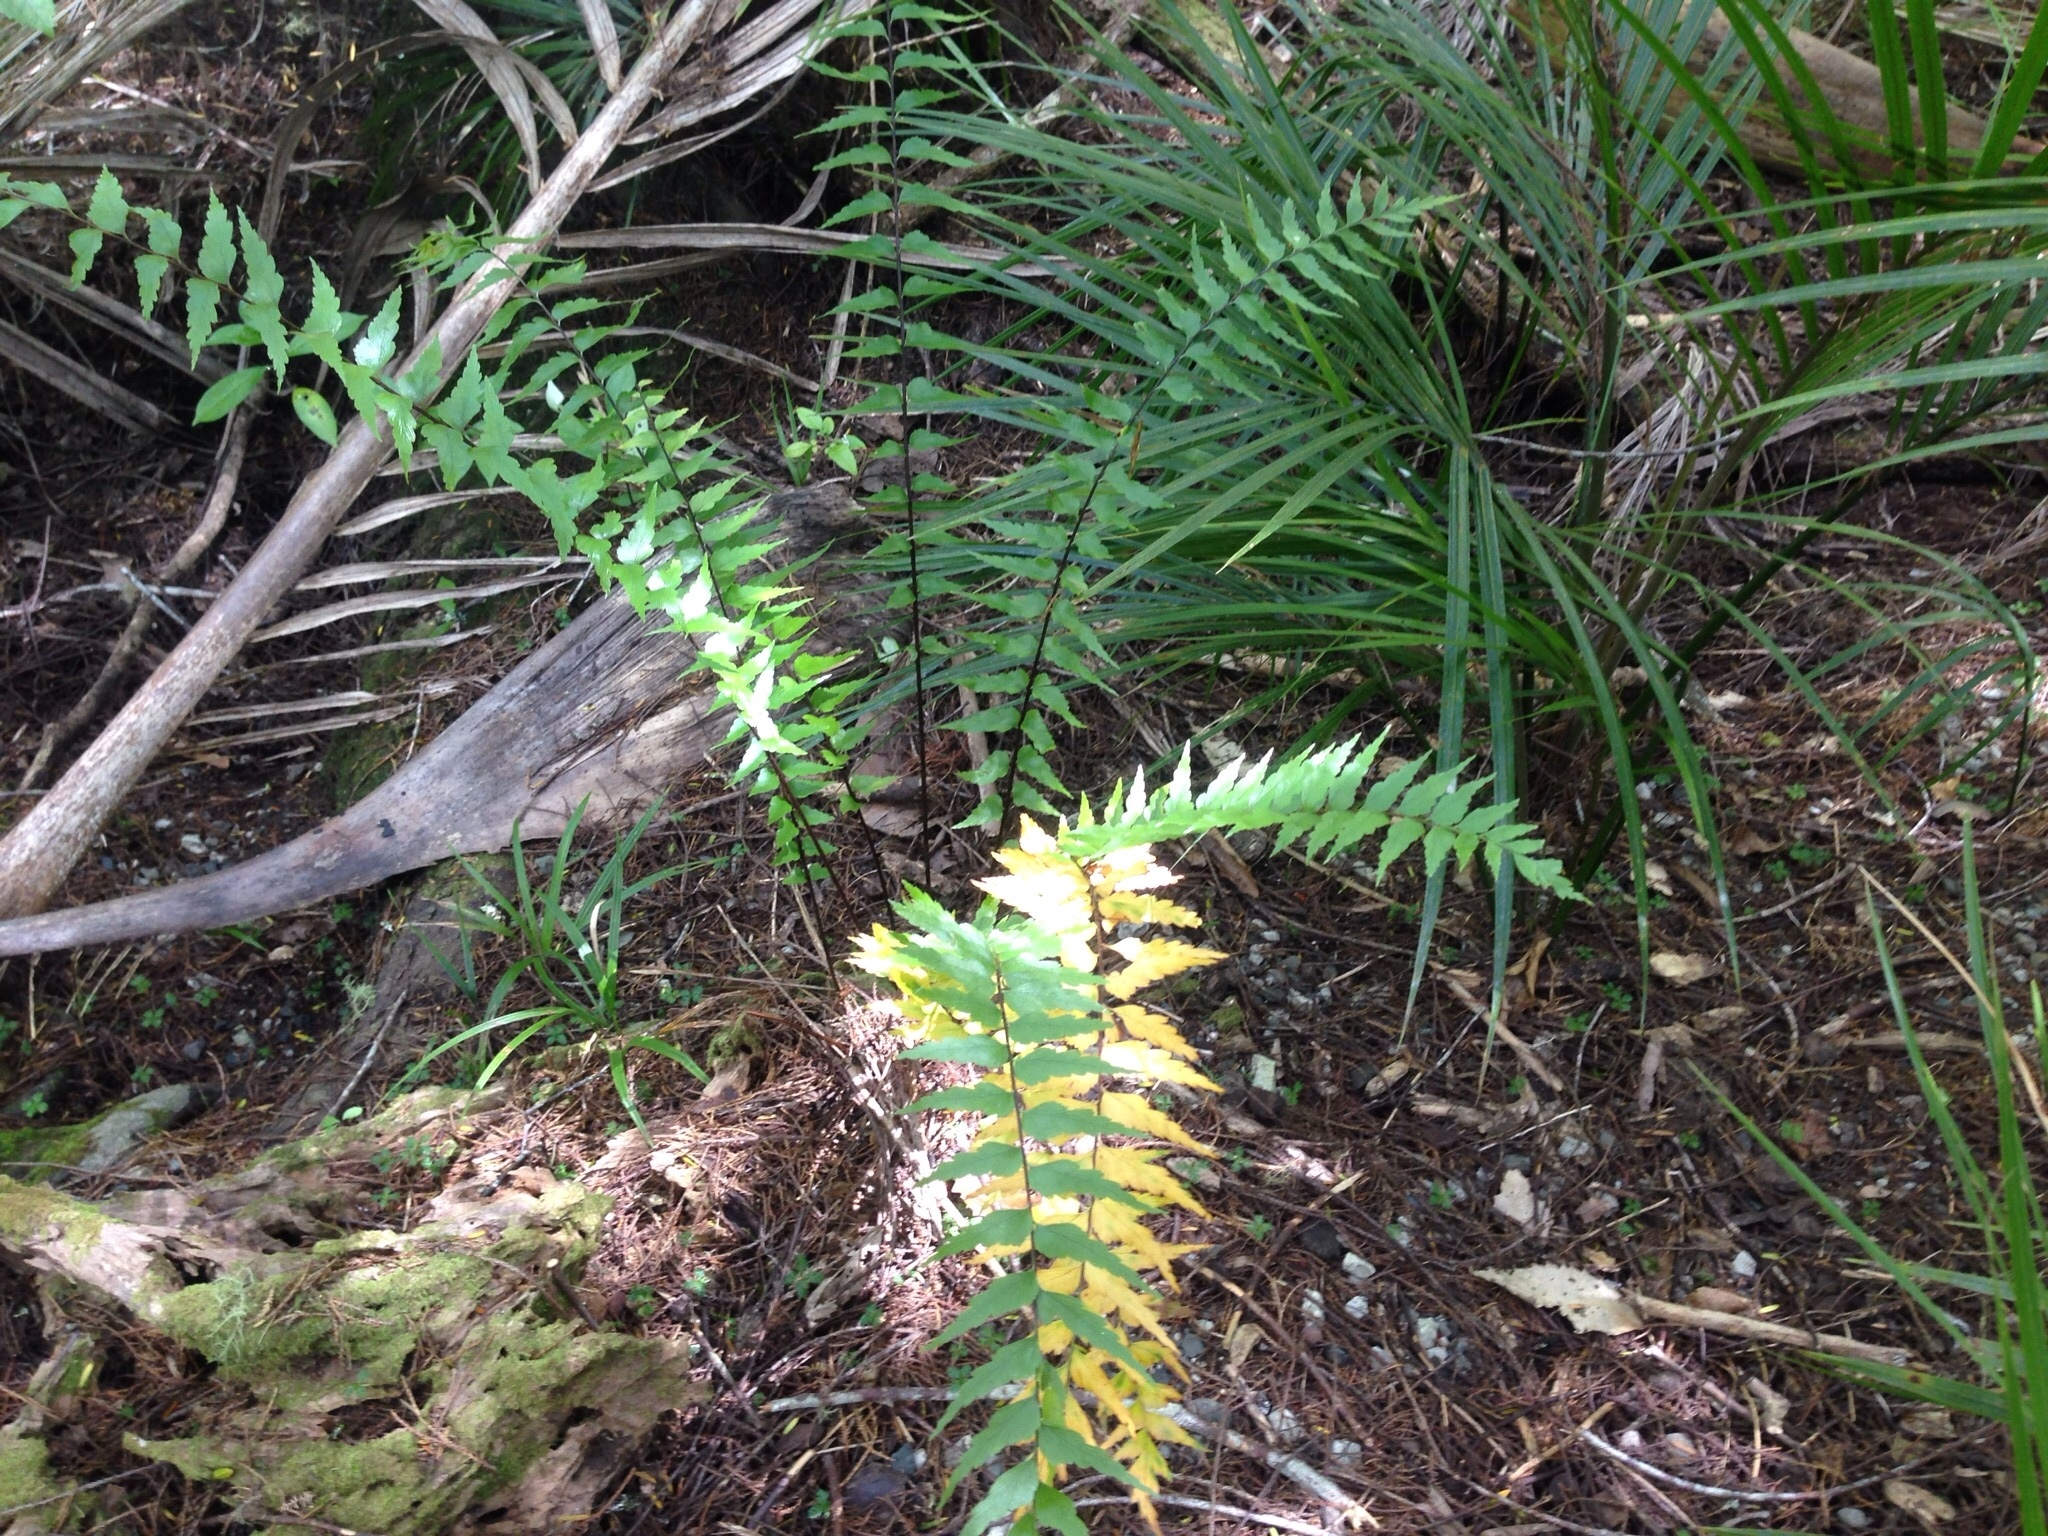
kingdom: Plantae
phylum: Tracheophyta
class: Polypodiopsida
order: Polypodiales
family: Aspleniaceae
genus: Asplenium
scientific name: Asplenium polyodon
